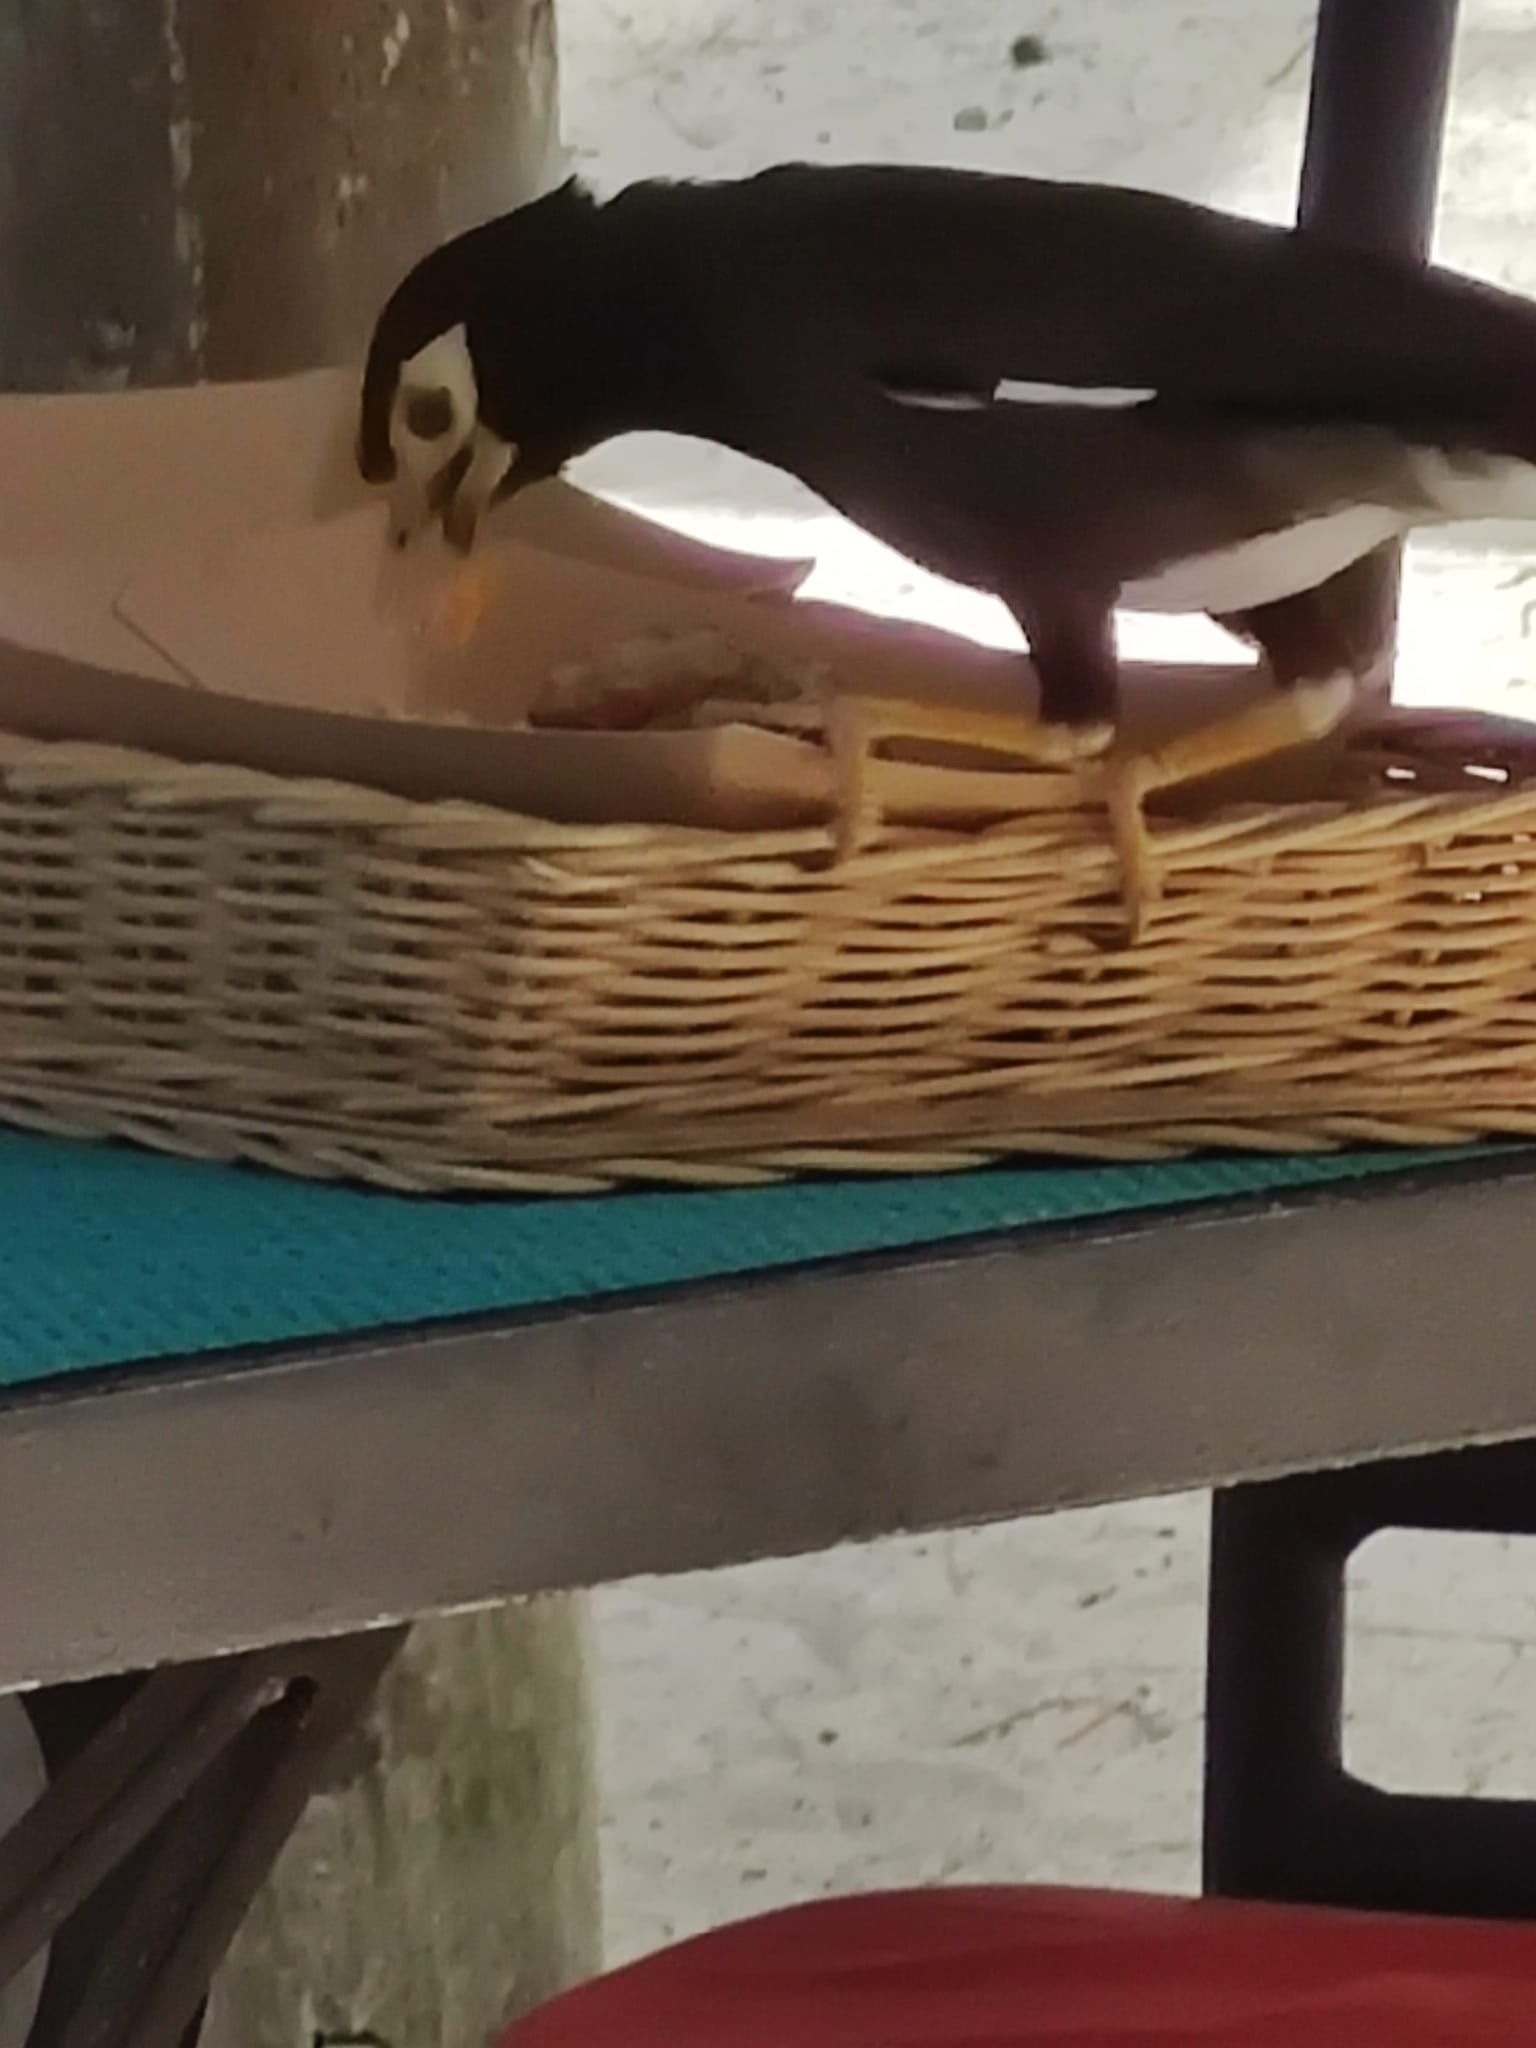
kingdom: Animalia
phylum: Chordata
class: Aves
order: Passeriformes
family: Sturnidae
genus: Acridotheres
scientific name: Acridotheres tristis
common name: Common myna
